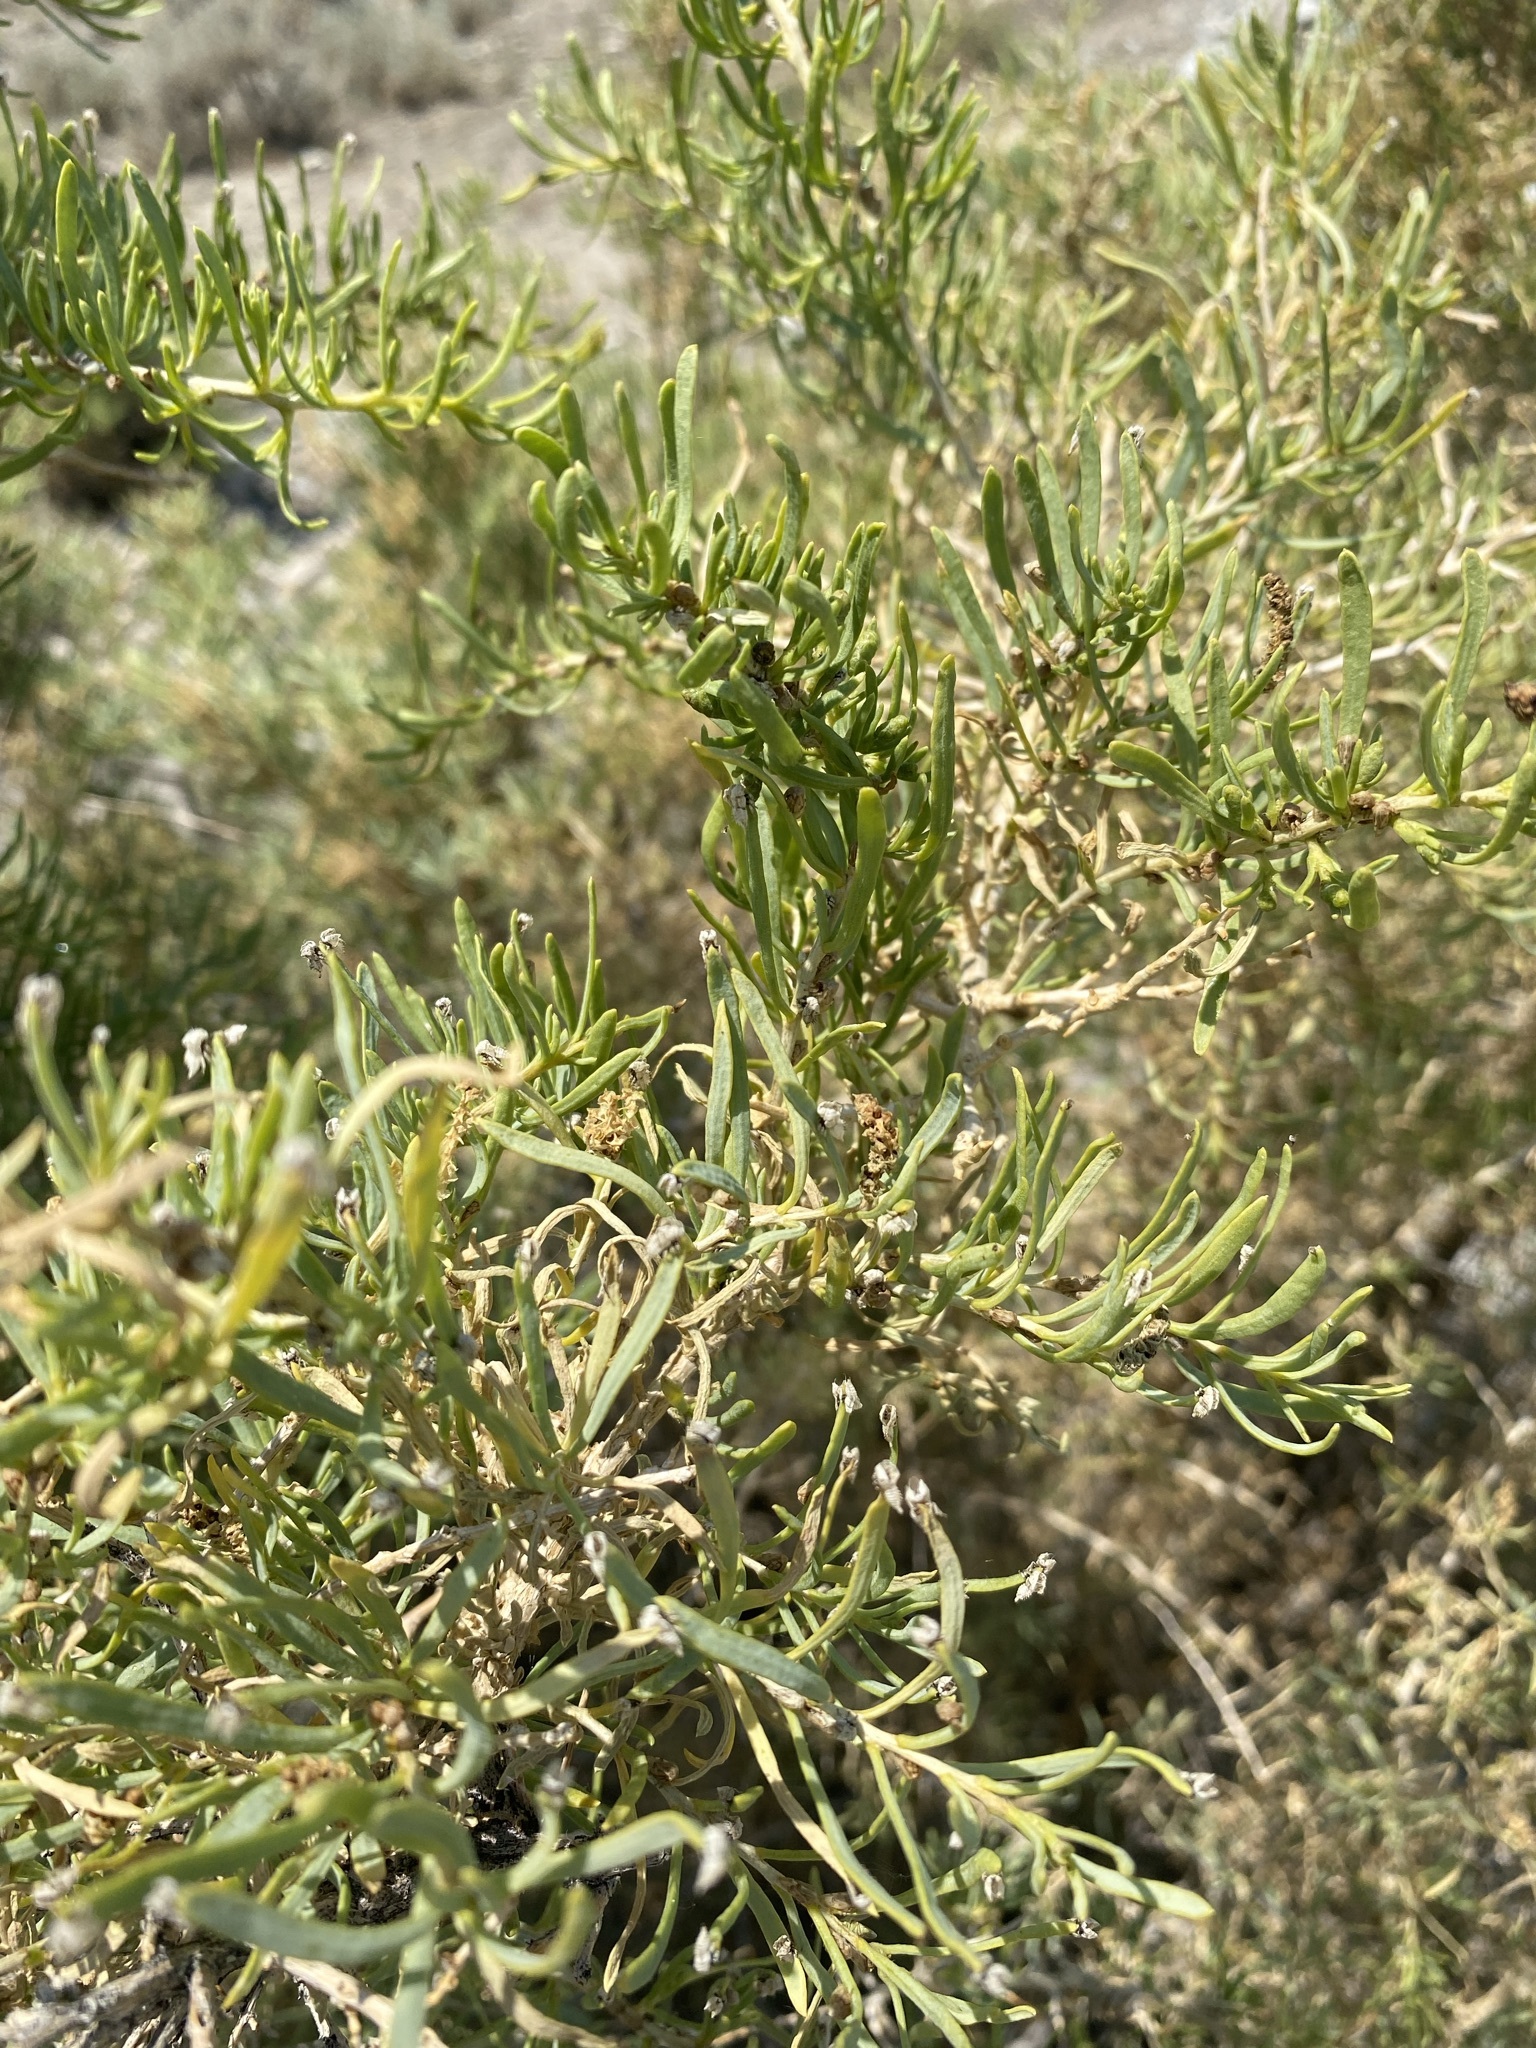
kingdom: Plantae
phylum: Tracheophyta
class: Magnoliopsida
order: Caryophyllales
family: Sarcobataceae
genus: Sarcobatus
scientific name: Sarcobatus vermiculatus
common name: Greasewood
